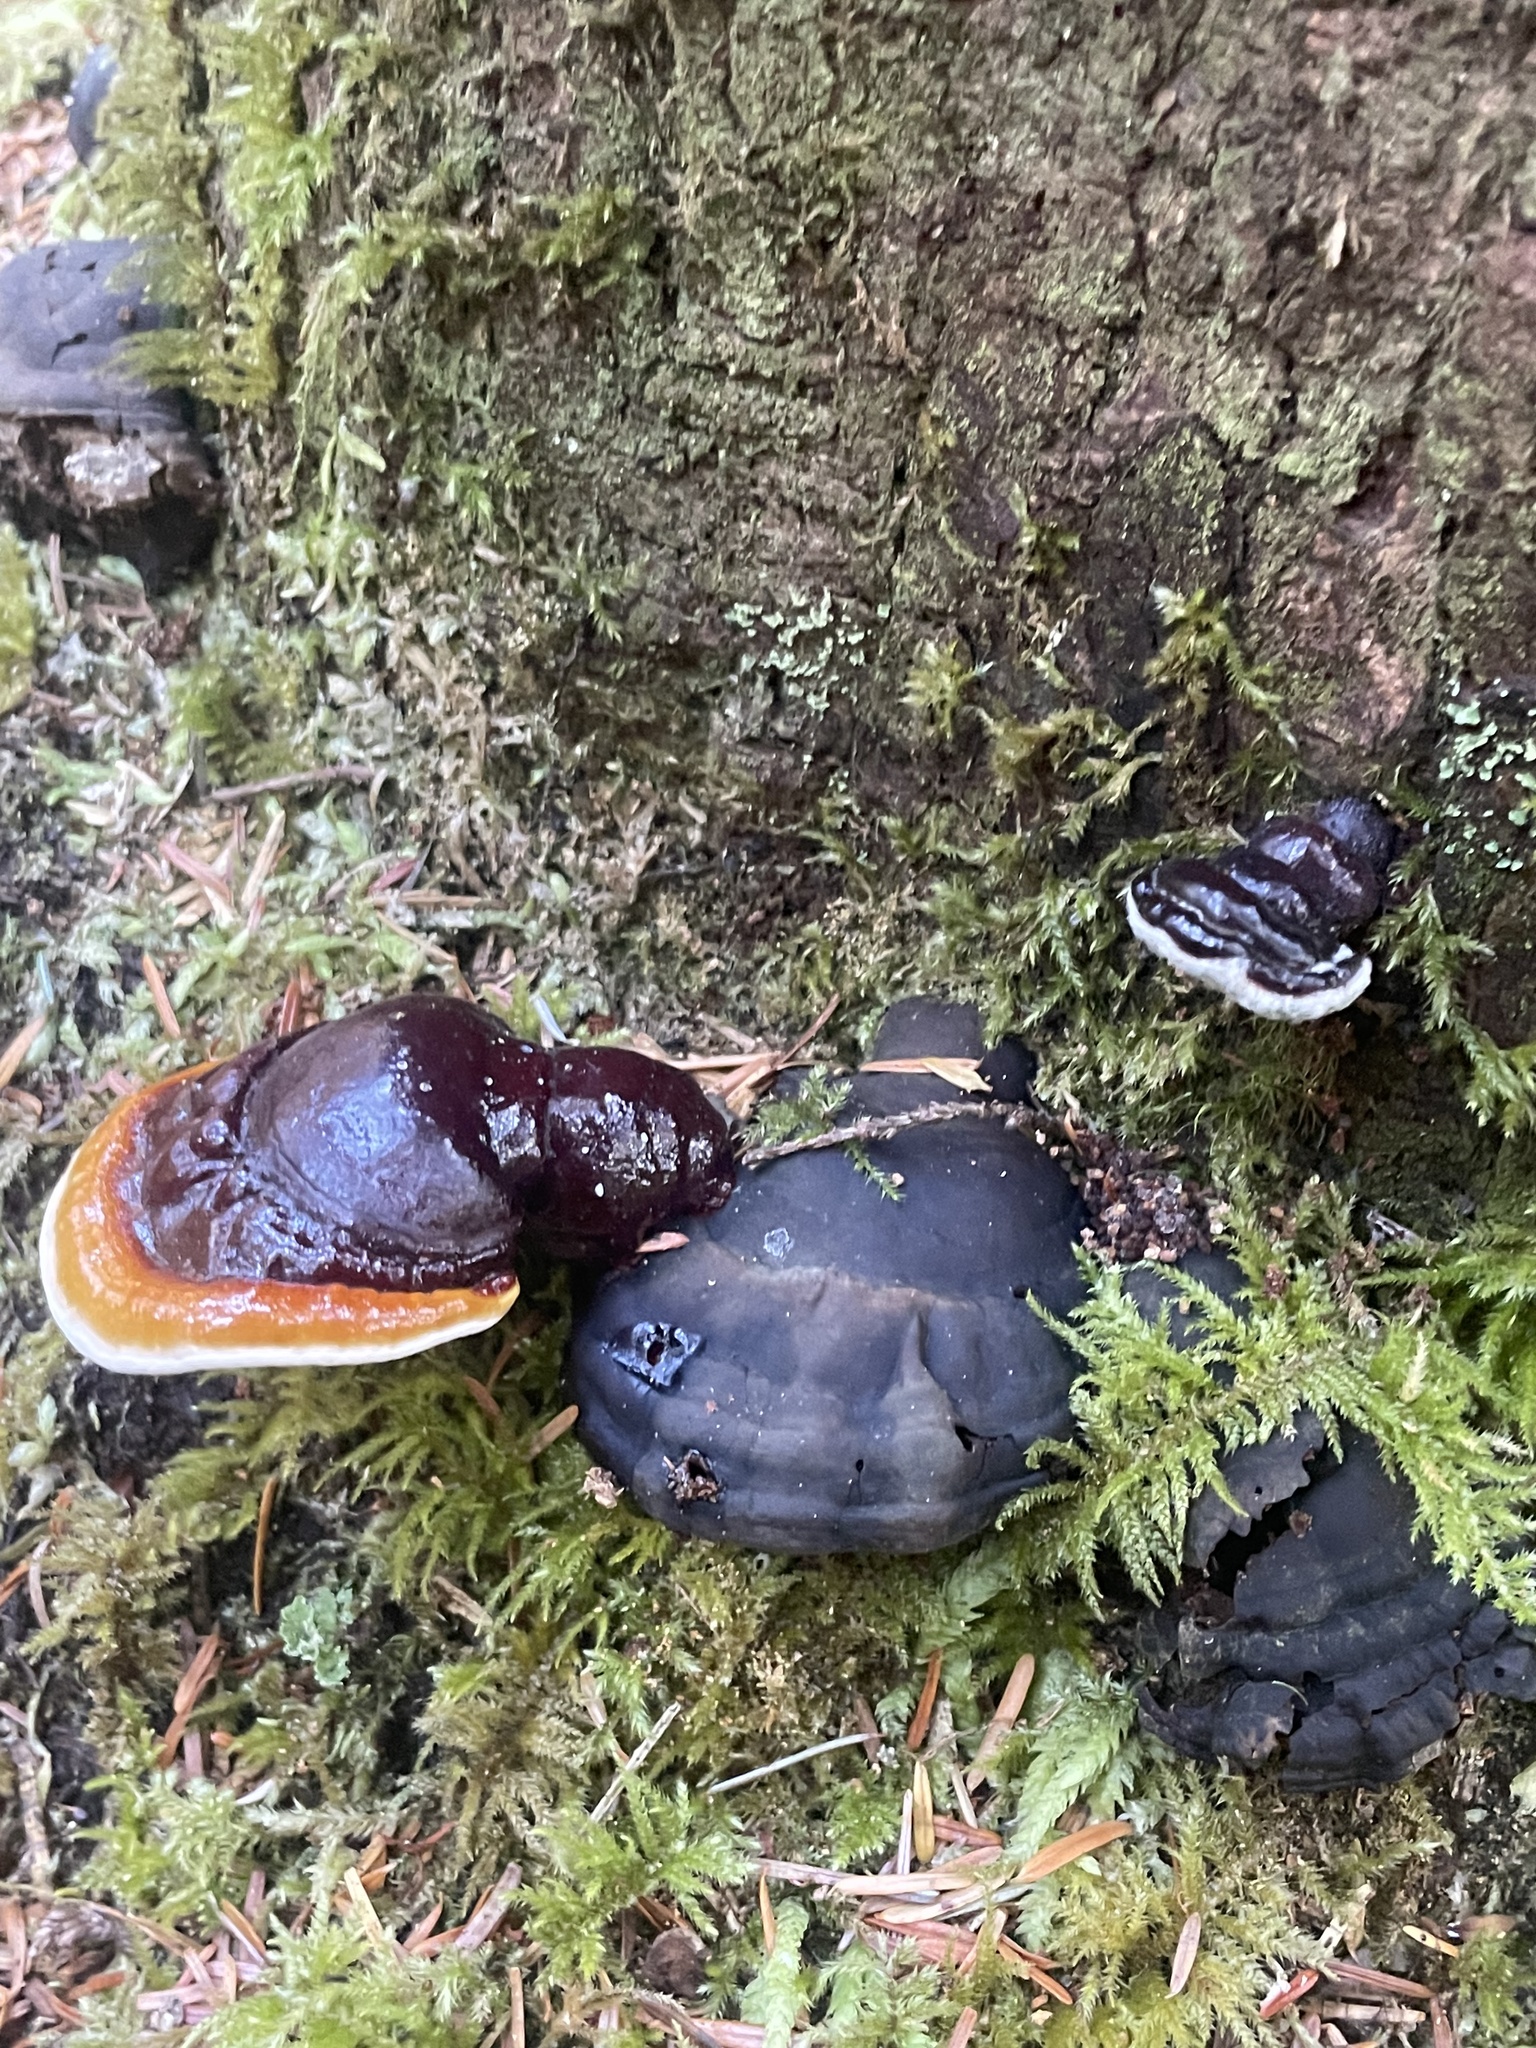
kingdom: Fungi
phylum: Basidiomycota
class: Agaricomycetes
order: Polyporales
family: Polyporaceae
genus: Ganoderma
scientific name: Ganoderma oregonense
